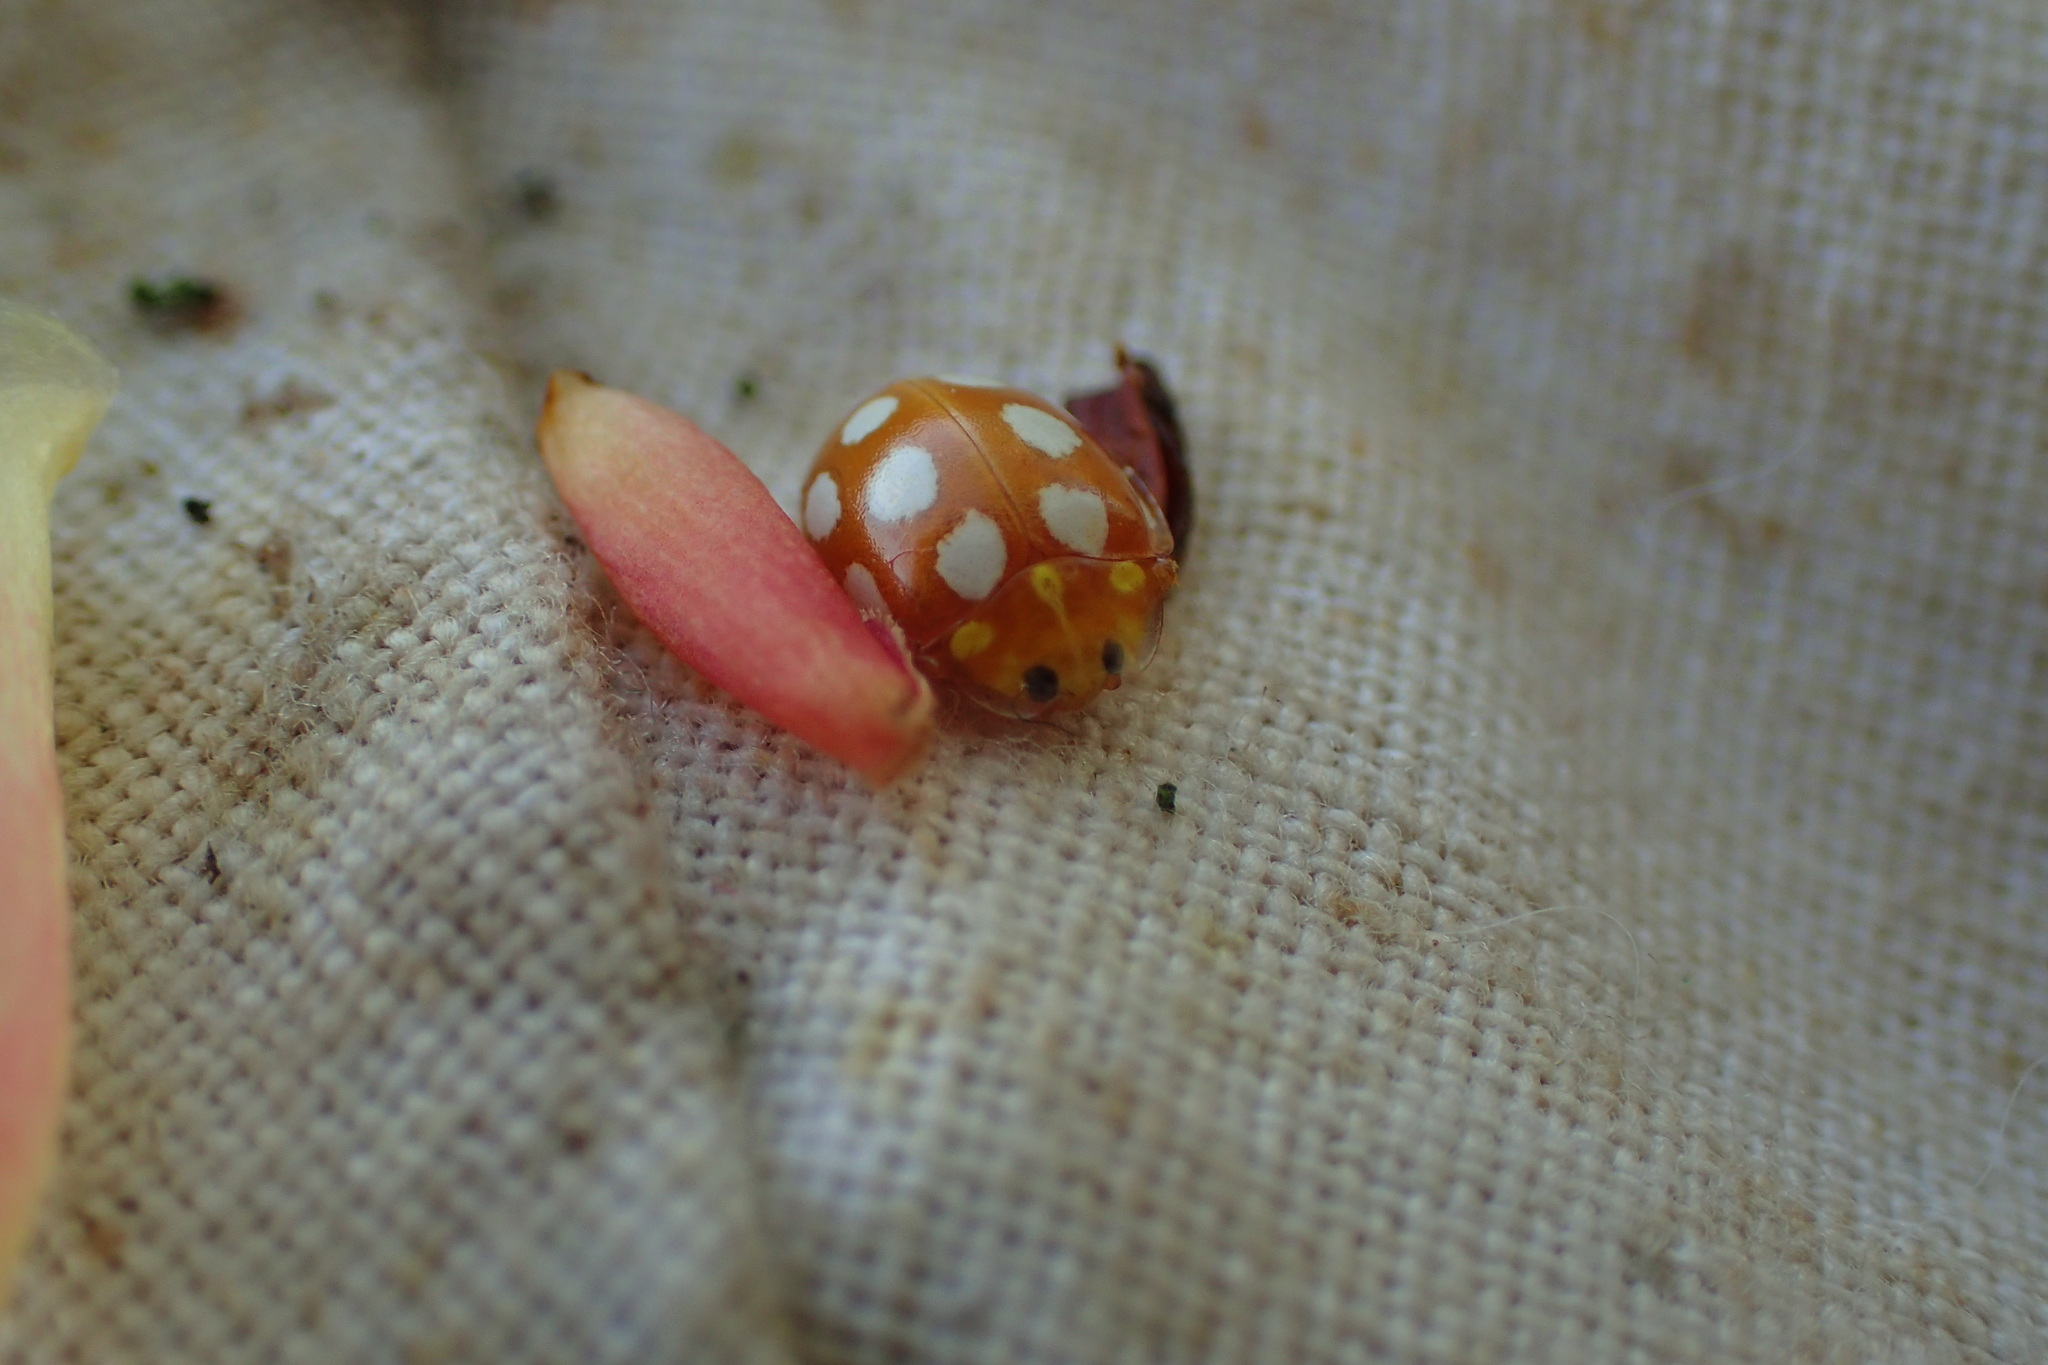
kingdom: Animalia
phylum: Arthropoda
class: Insecta
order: Coleoptera
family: Coccinellidae
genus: Halyzia
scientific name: Halyzia sedecimguttata
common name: Orange ladybird
